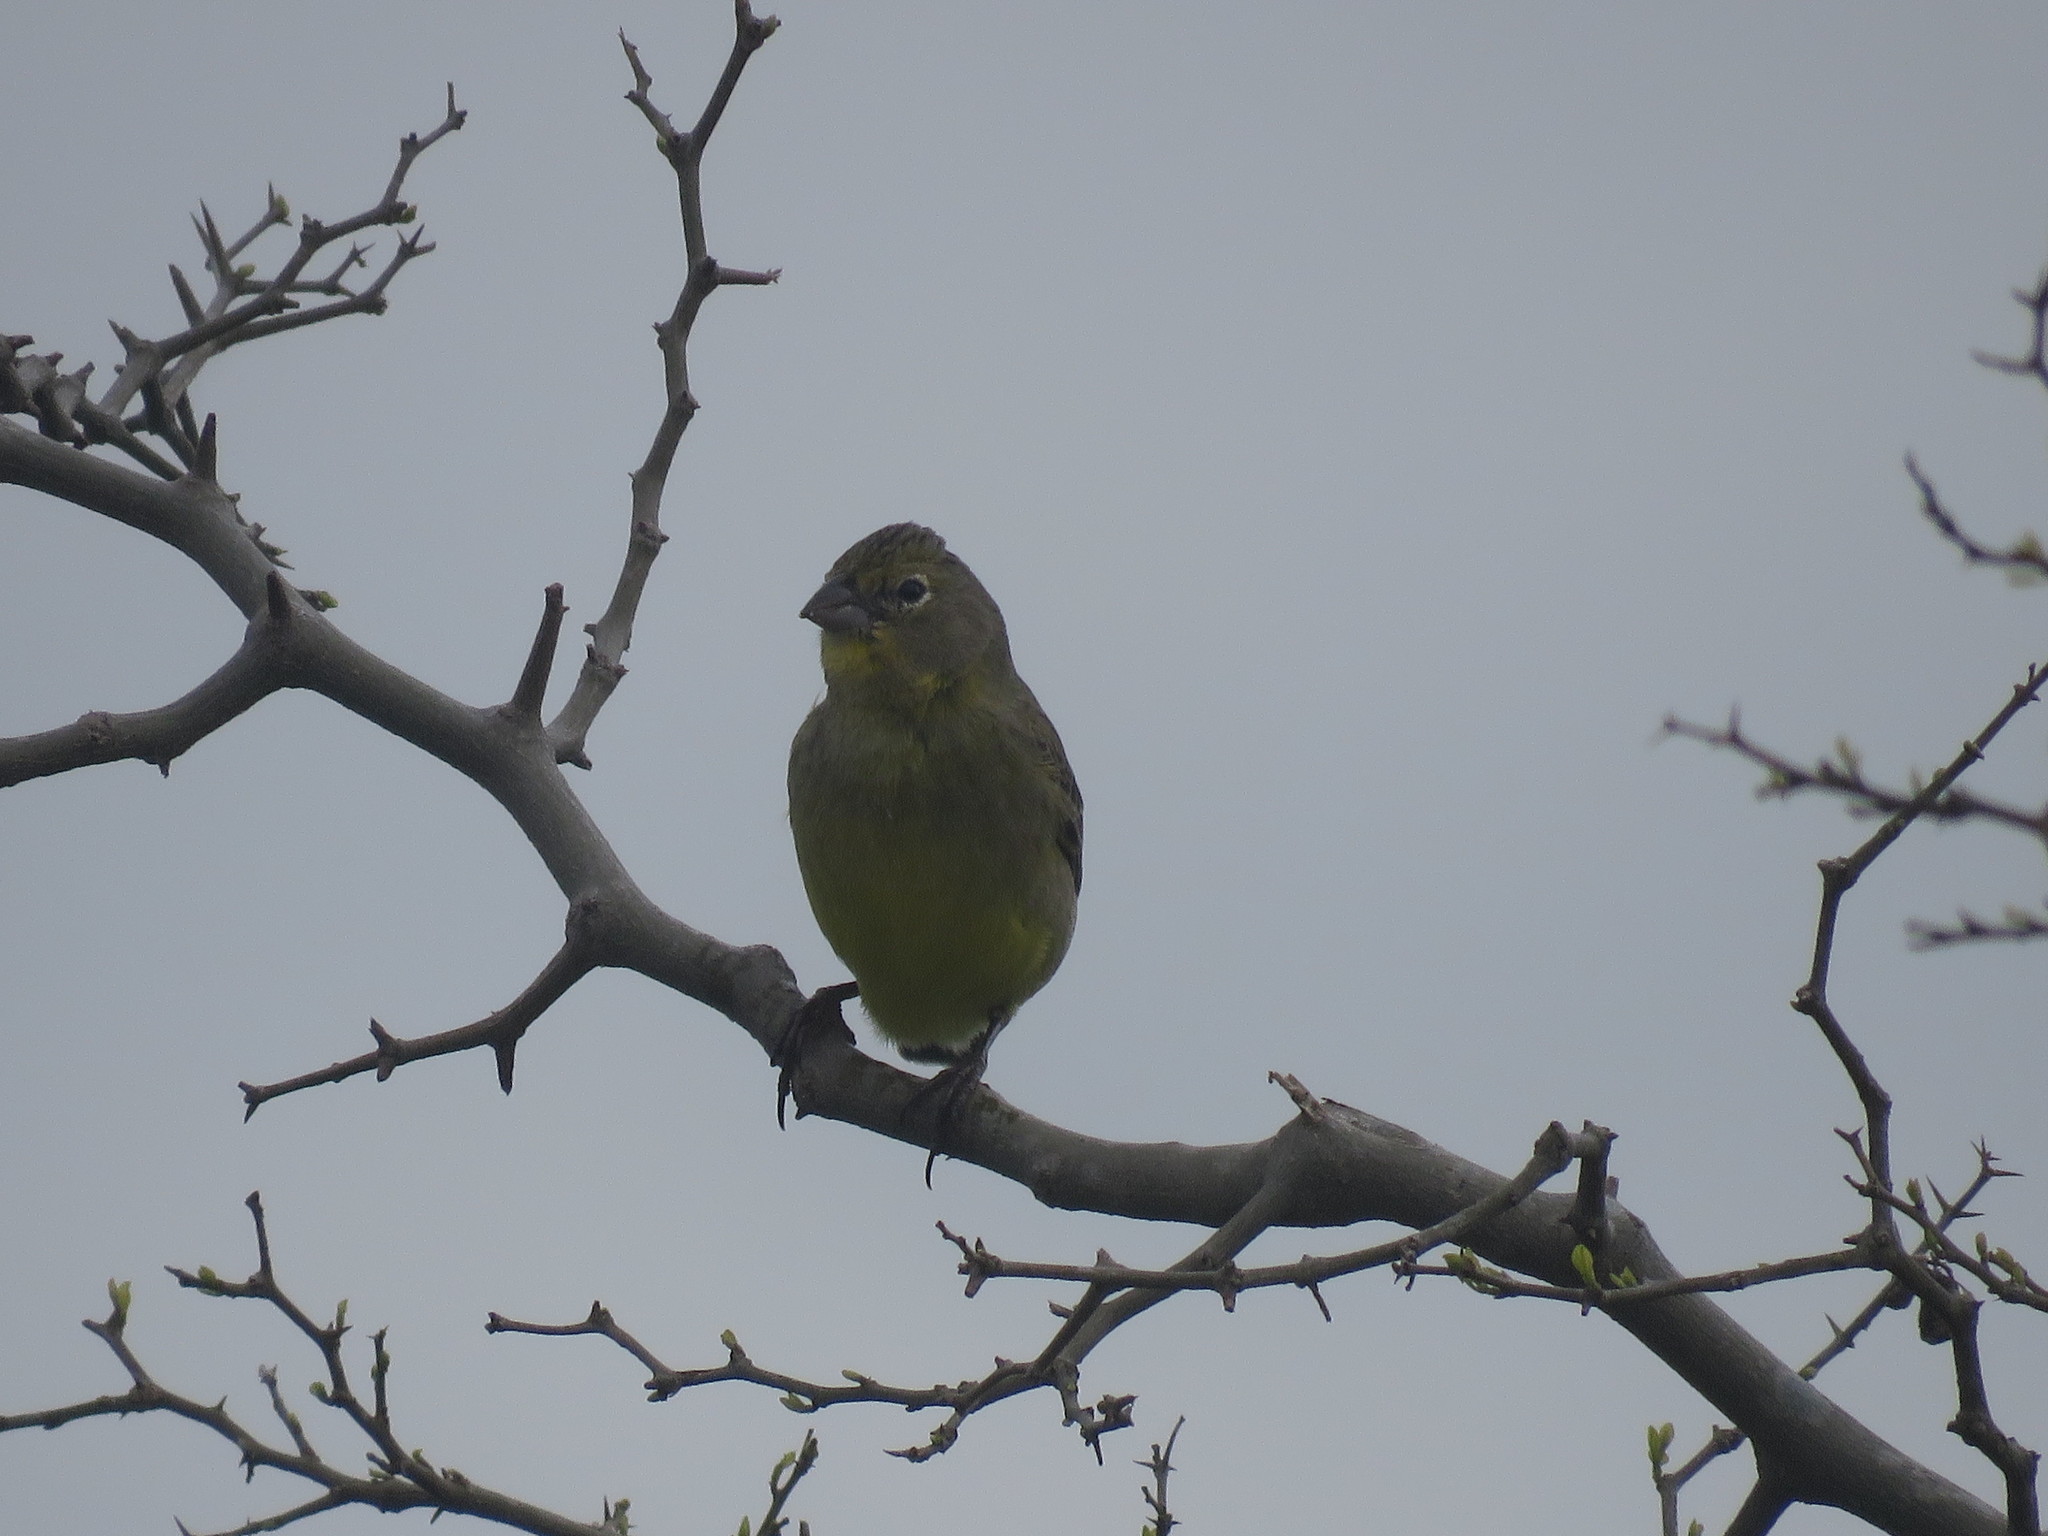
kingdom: Animalia
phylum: Chordata
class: Aves
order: Passeriformes
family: Thraupidae
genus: Sicalis
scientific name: Sicalis luteola
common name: Grassland yellow-finch
